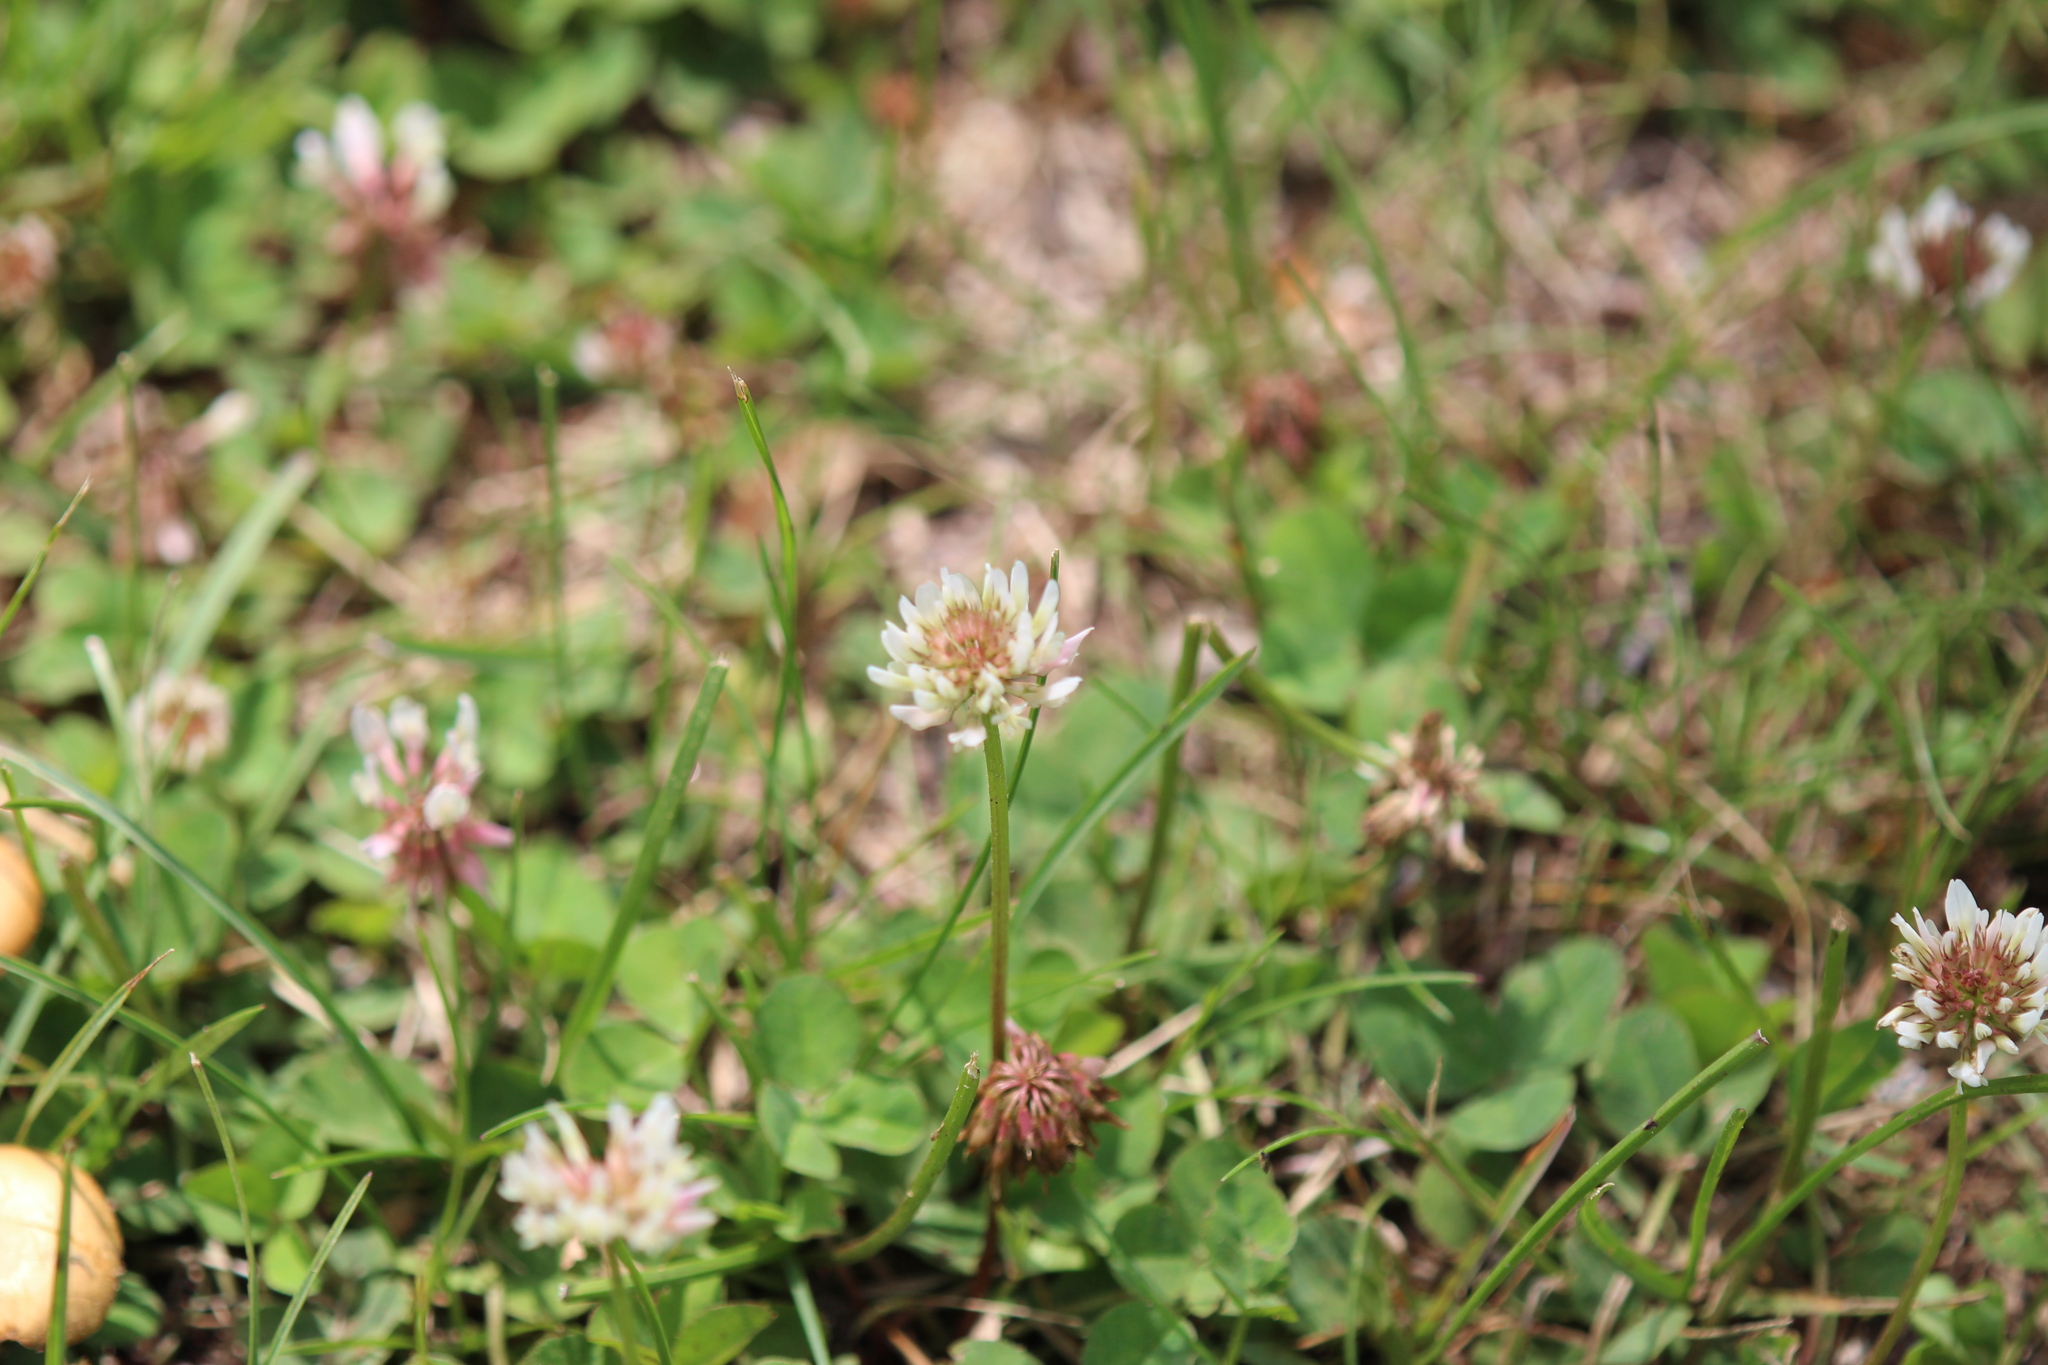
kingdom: Plantae
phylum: Tracheophyta
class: Magnoliopsida
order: Fabales
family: Fabaceae
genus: Trifolium
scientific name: Trifolium repens
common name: White clover
